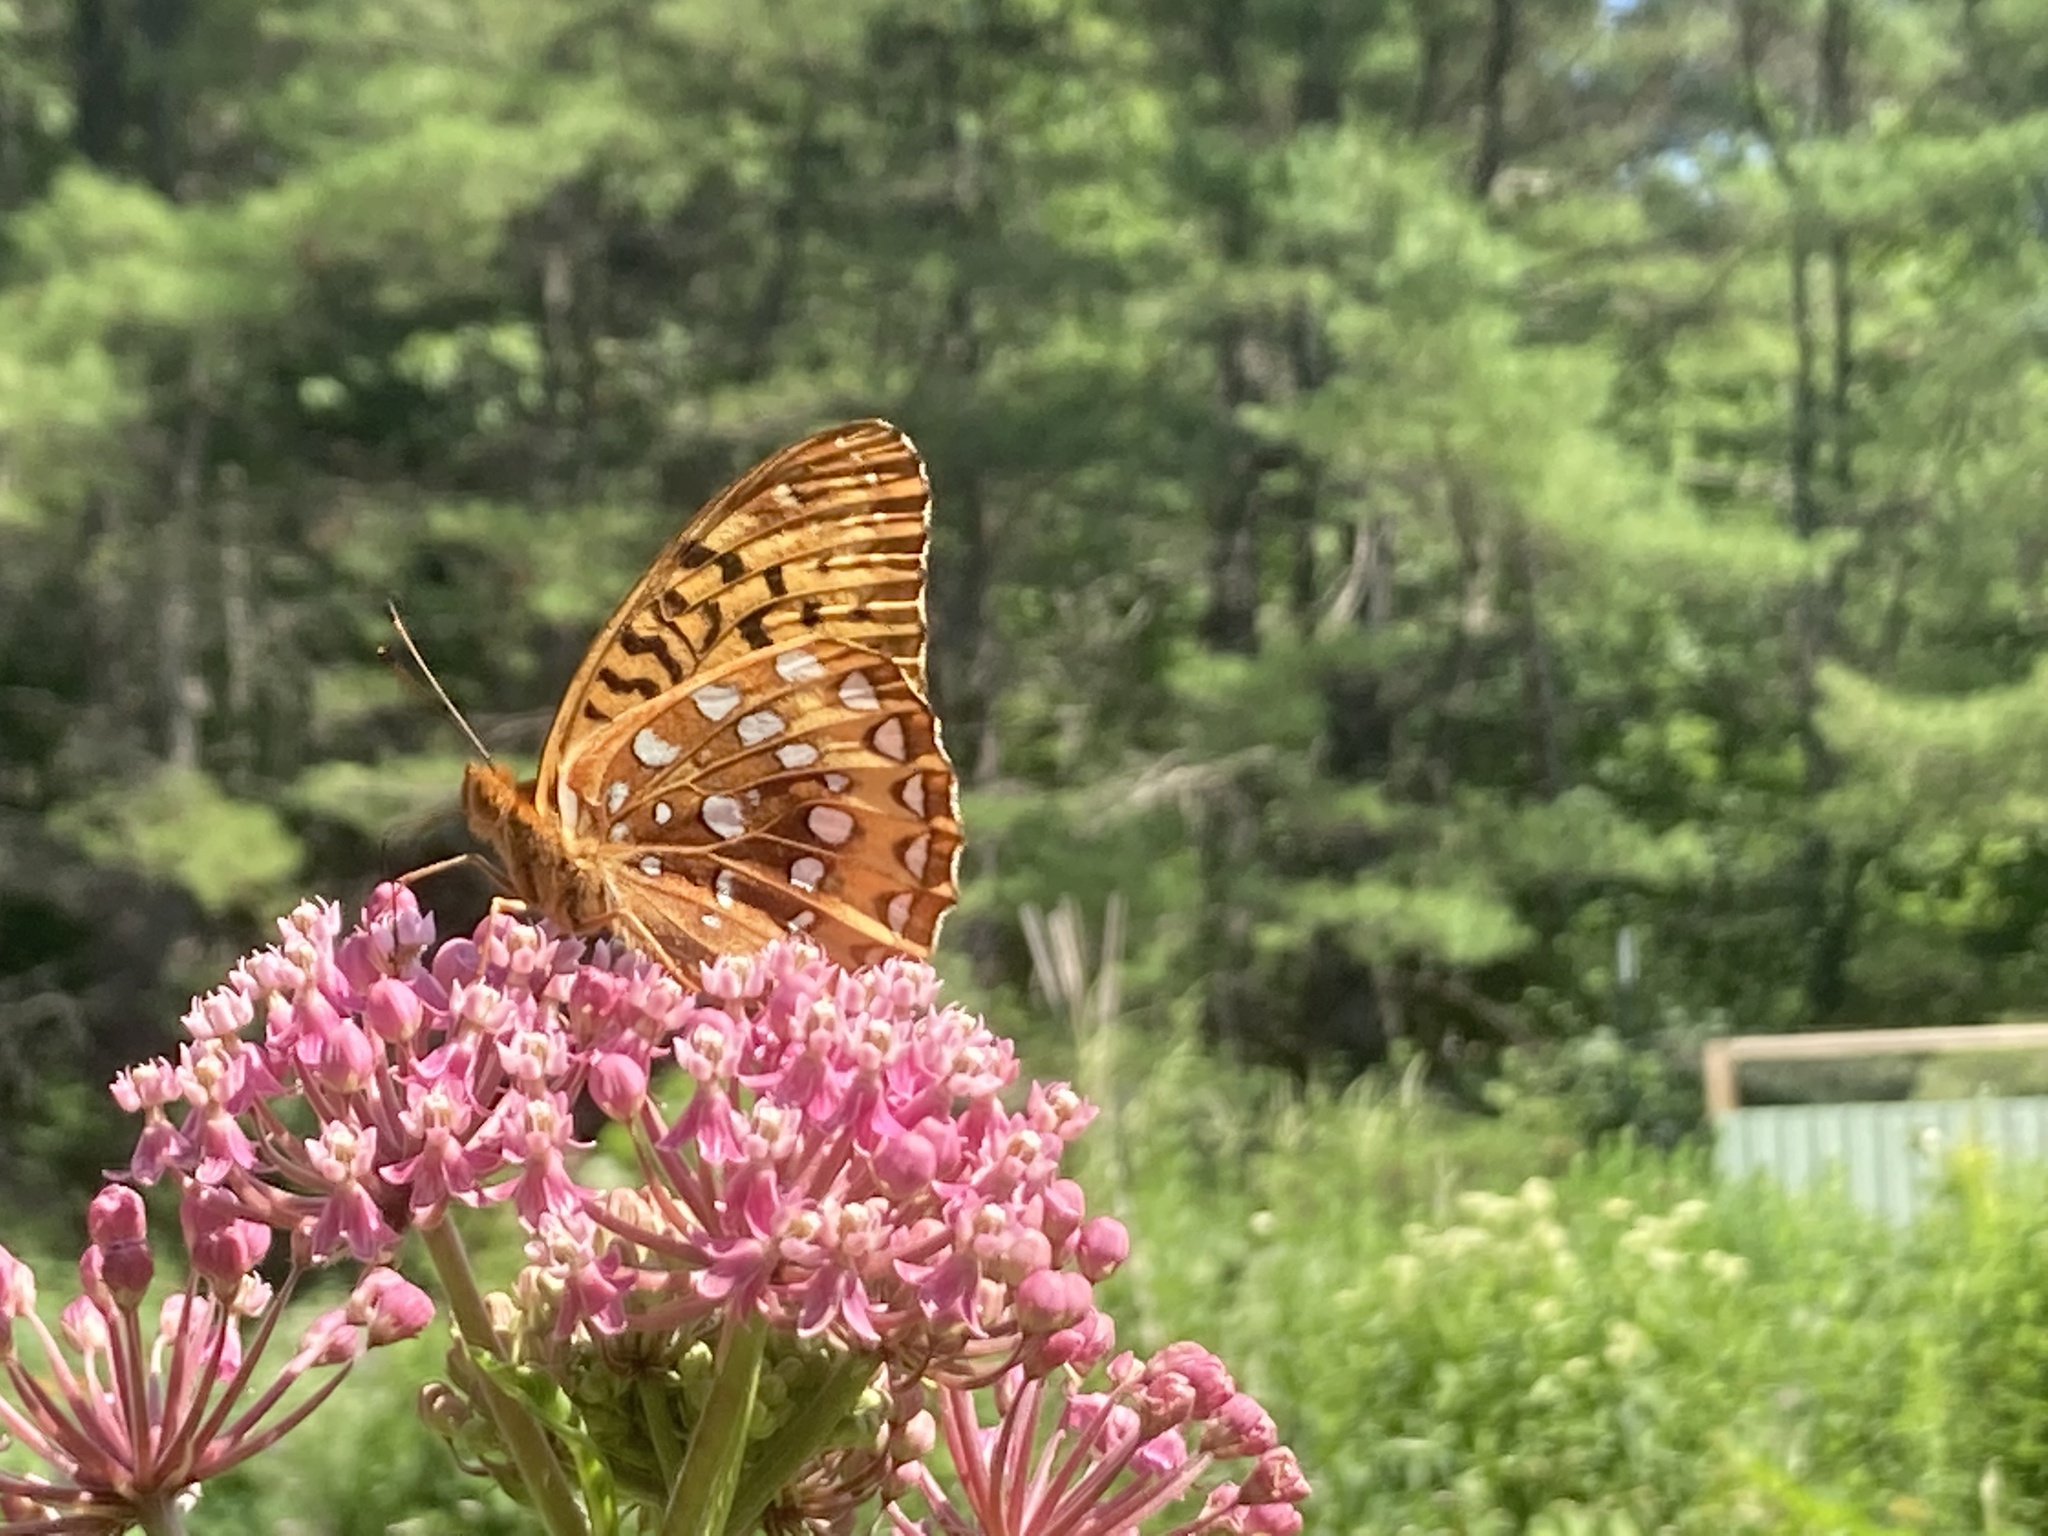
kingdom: Animalia
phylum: Arthropoda
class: Insecta
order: Lepidoptera
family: Nymphalidae
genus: Speyeria
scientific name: Speyeria cybele
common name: Great spangled fritillary
